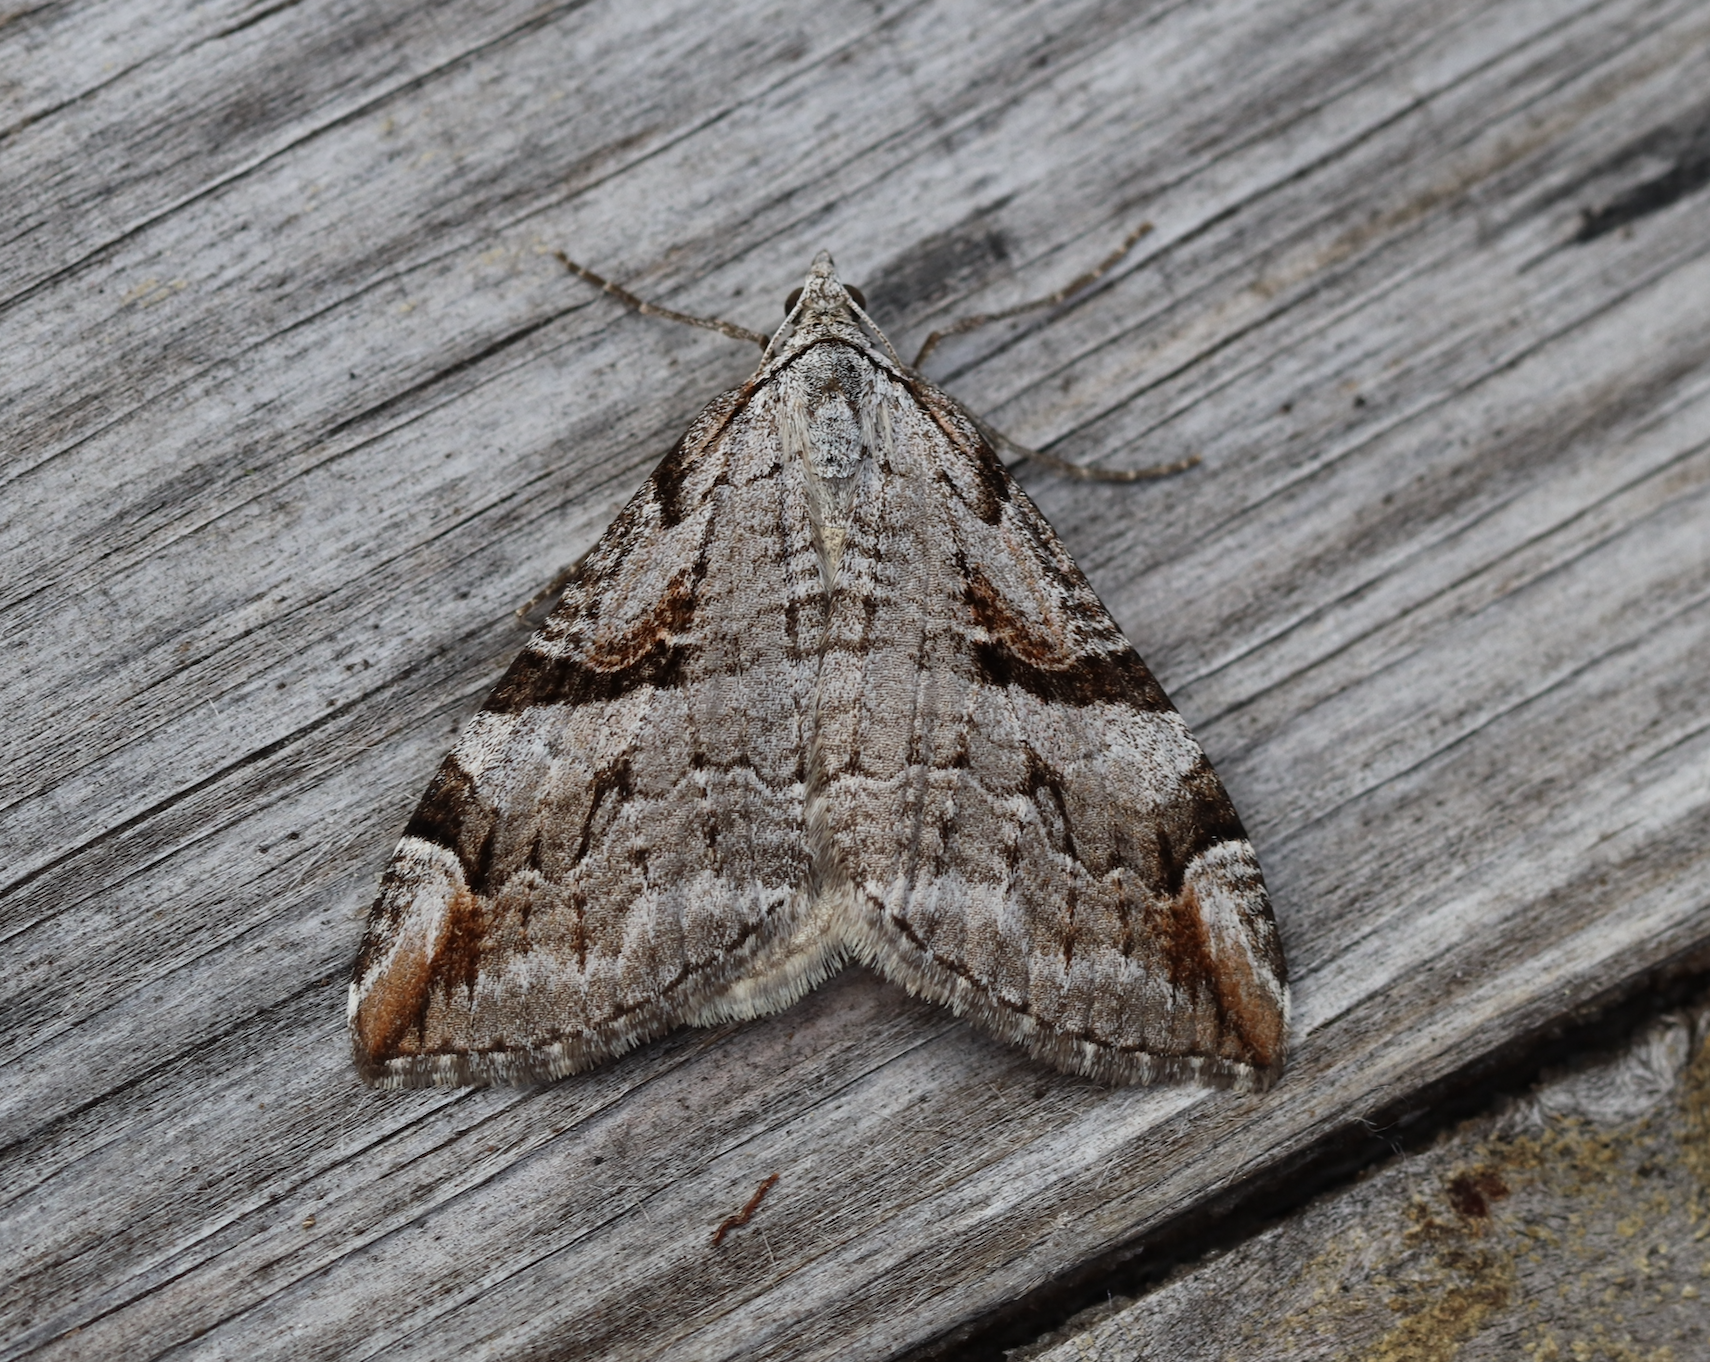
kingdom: Animalia
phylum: Arthropoda
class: Insecta
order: Lepidoptera
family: Geometridae
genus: Aplocera
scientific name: Aplocera praeformata
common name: Purple treble-bar
